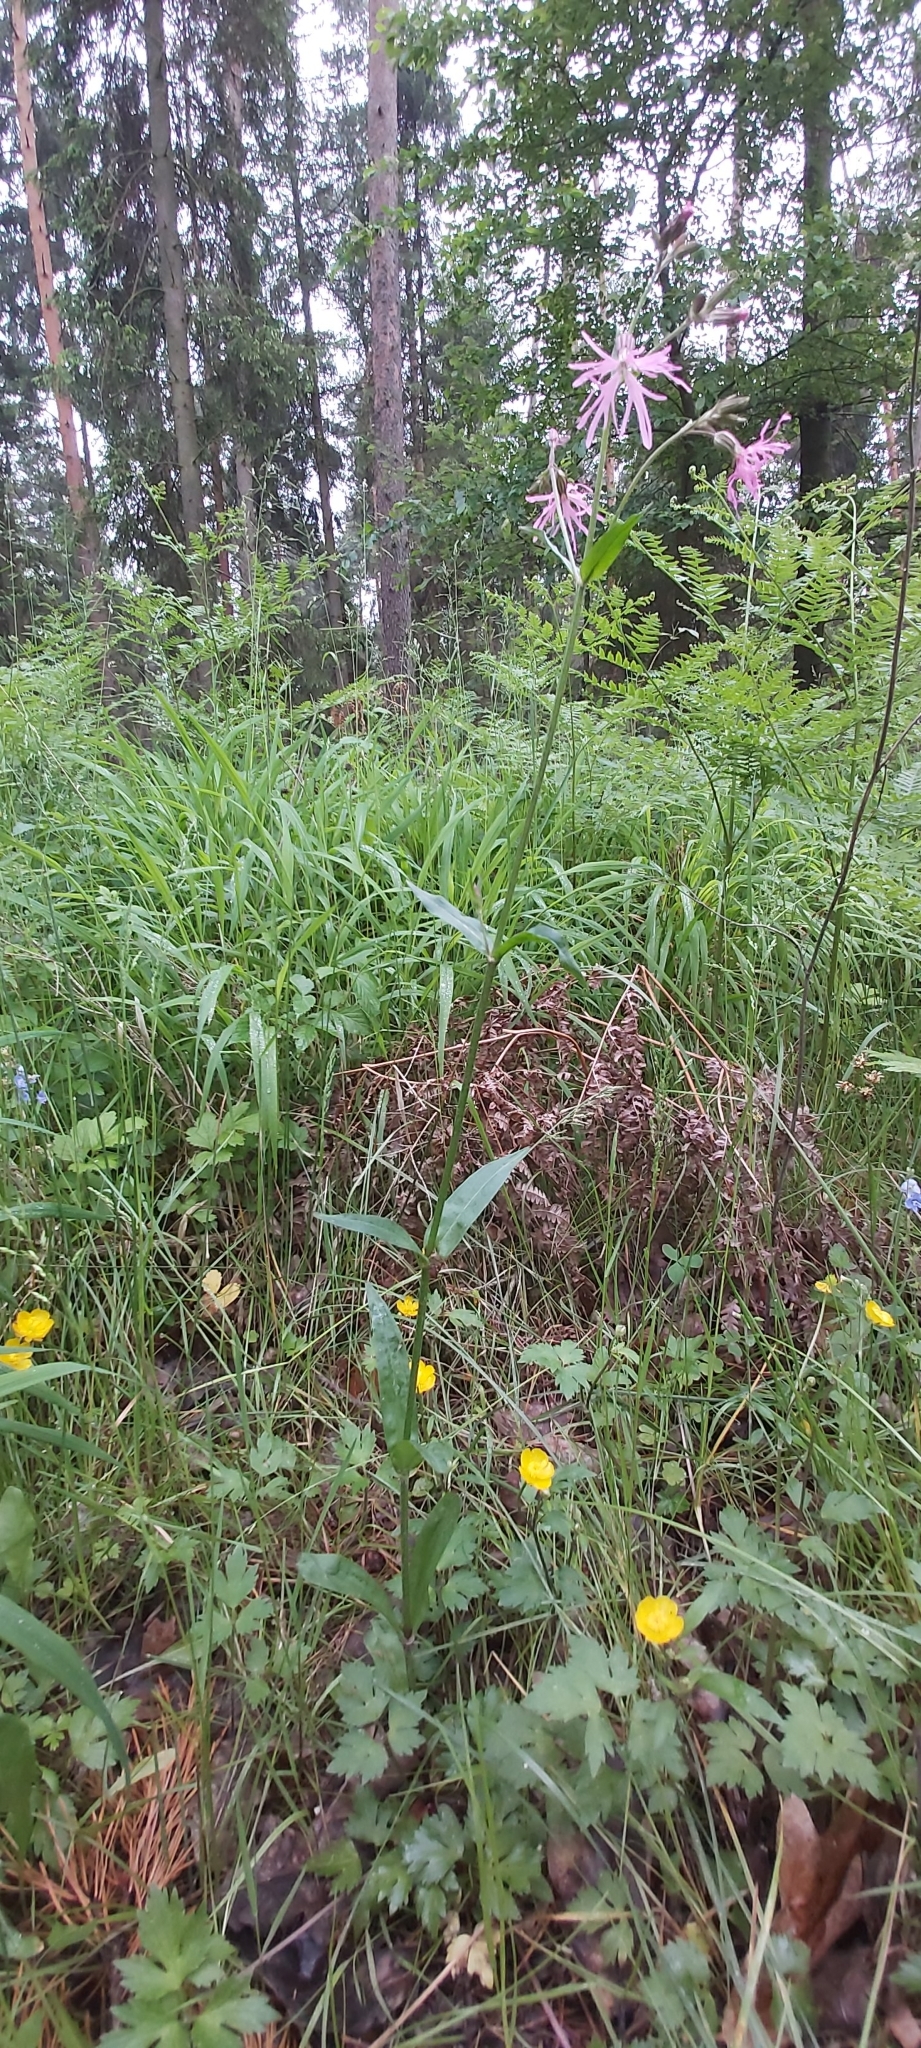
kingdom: Plantae
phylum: Tracheophyta
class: Magnoliopsida
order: Caryophyllales
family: Caryophyllaceae
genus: Silene
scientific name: Silene flos-cuculi
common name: Ragged-robin
